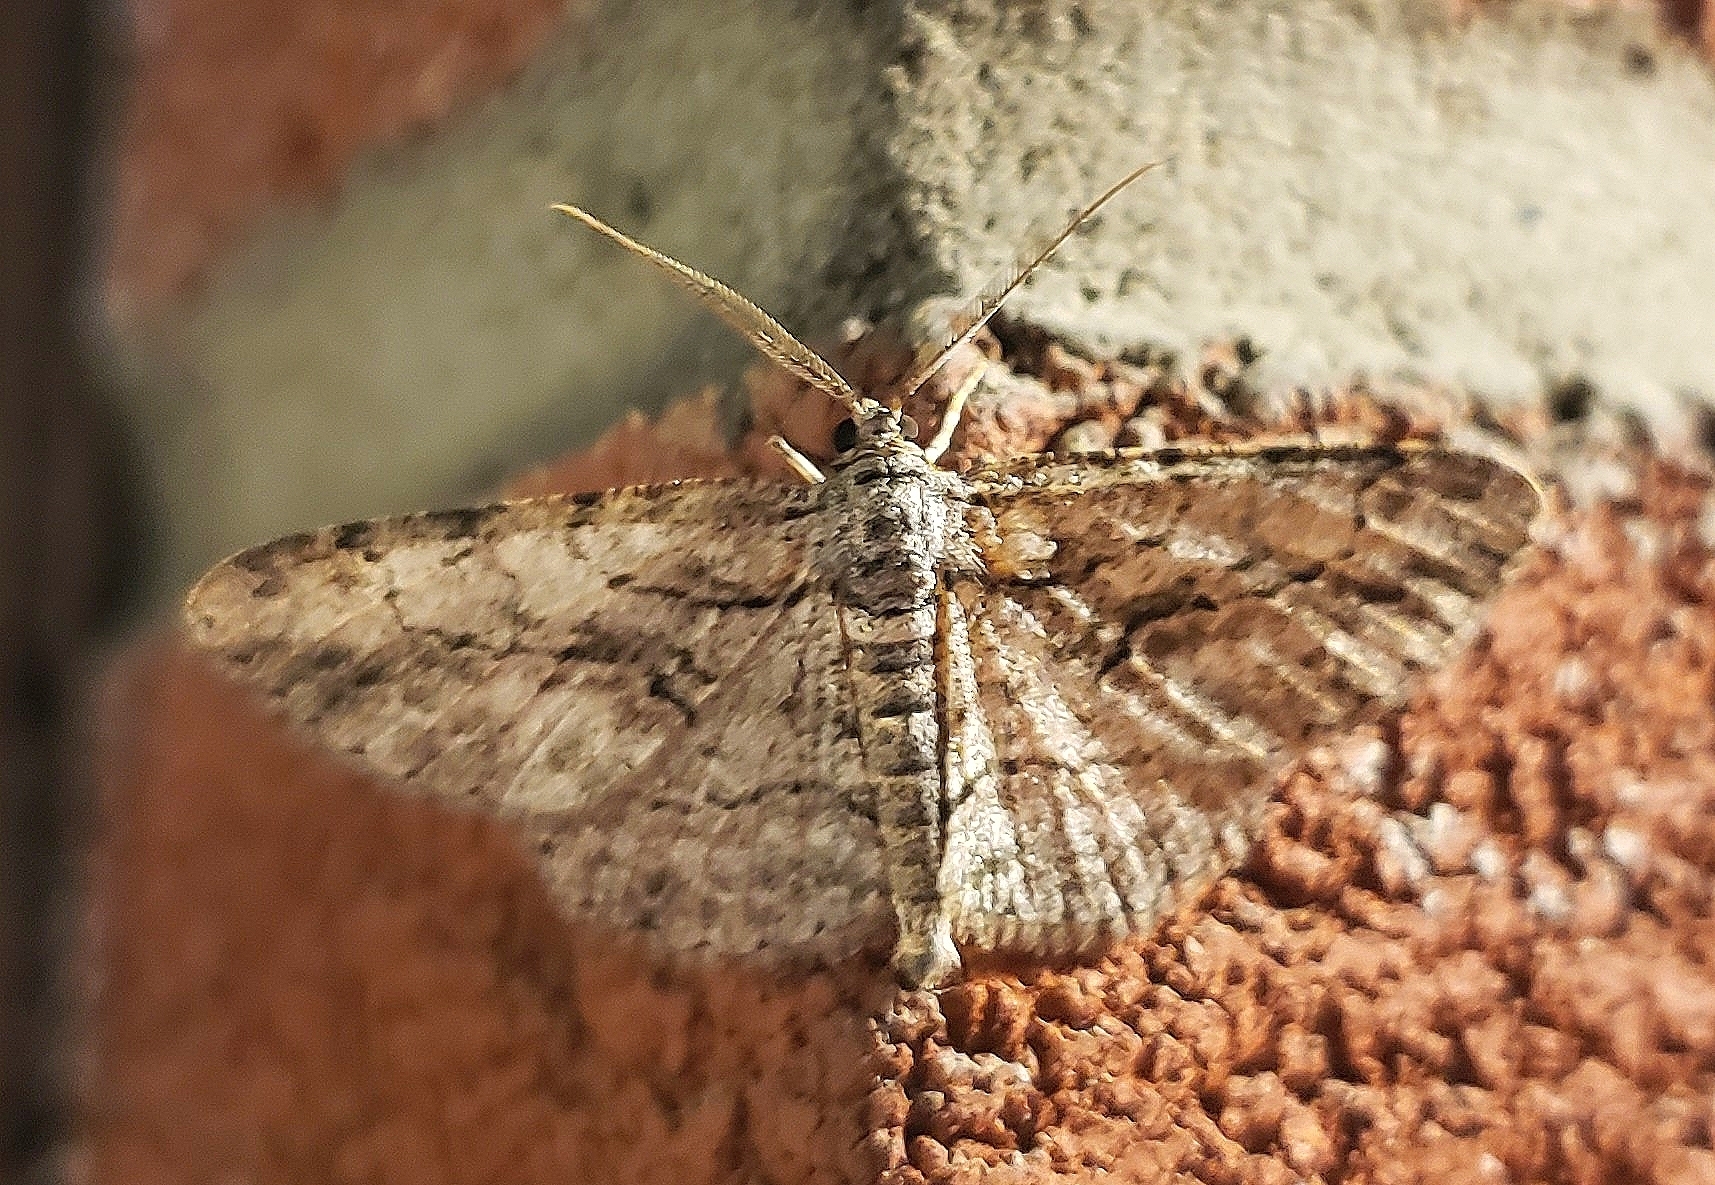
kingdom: Animalia
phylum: Arthropoda
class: Insecta
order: Lepidoptera
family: Geometridae
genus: Anavitrinella
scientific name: Anavitrinella pampinaria
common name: Common gray
